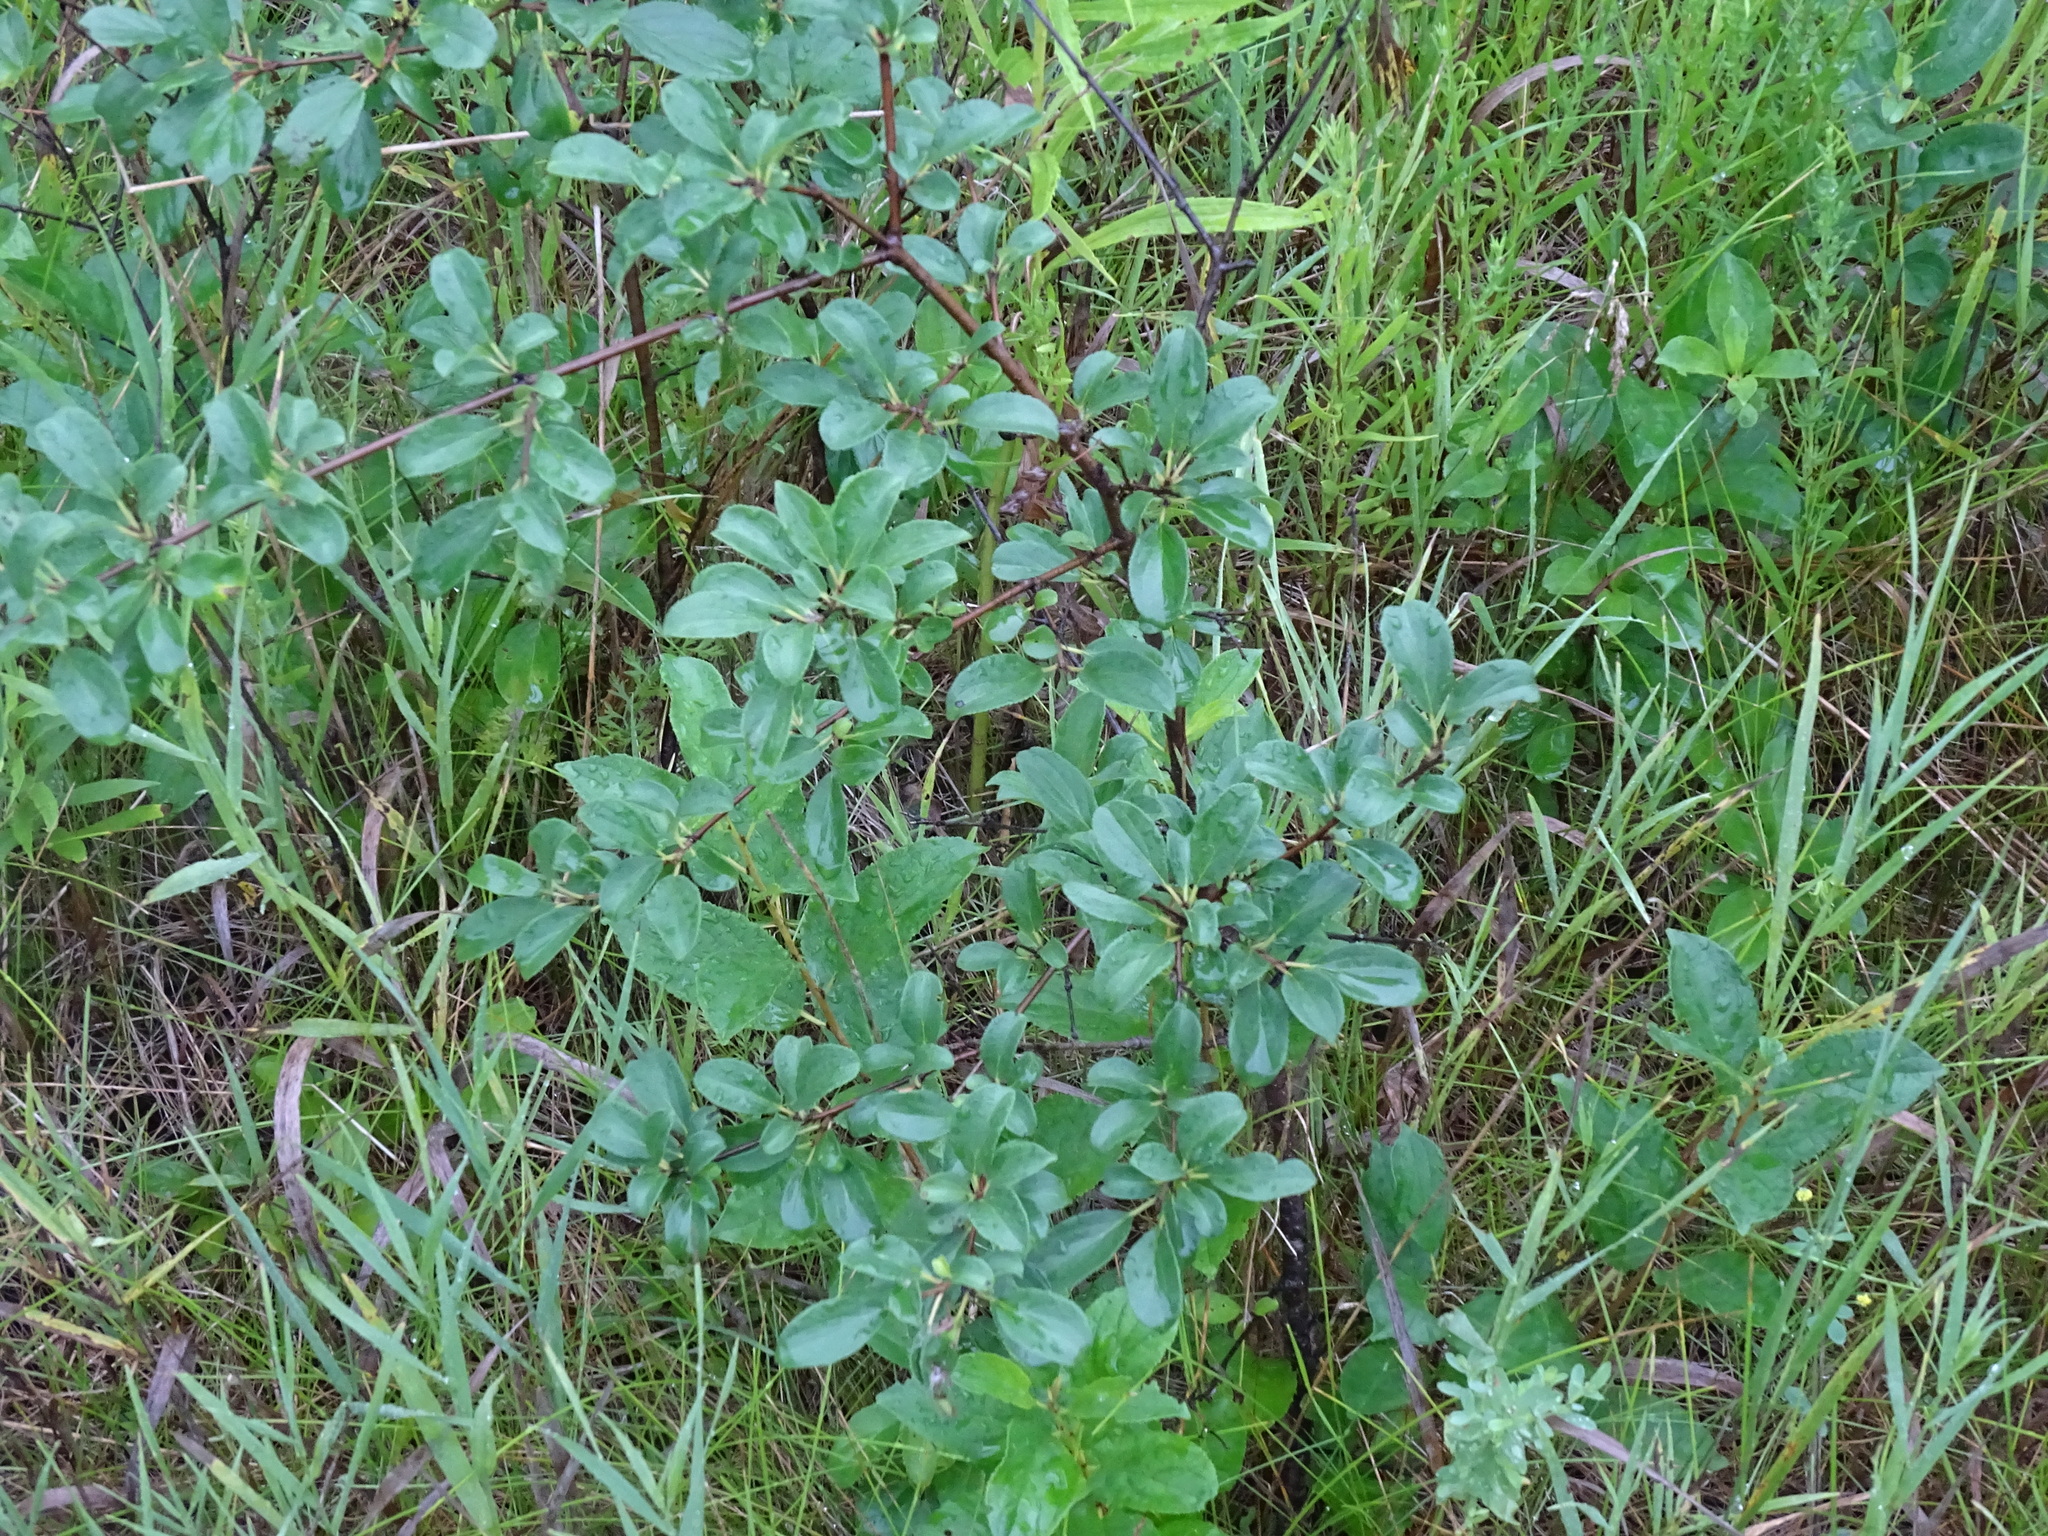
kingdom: Plantae
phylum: Tracheophyta
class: Magnoliopsida
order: Rosales
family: Rhamnaceae
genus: Rhamnus
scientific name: Rhamnus cathartica
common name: Common buckthorn
